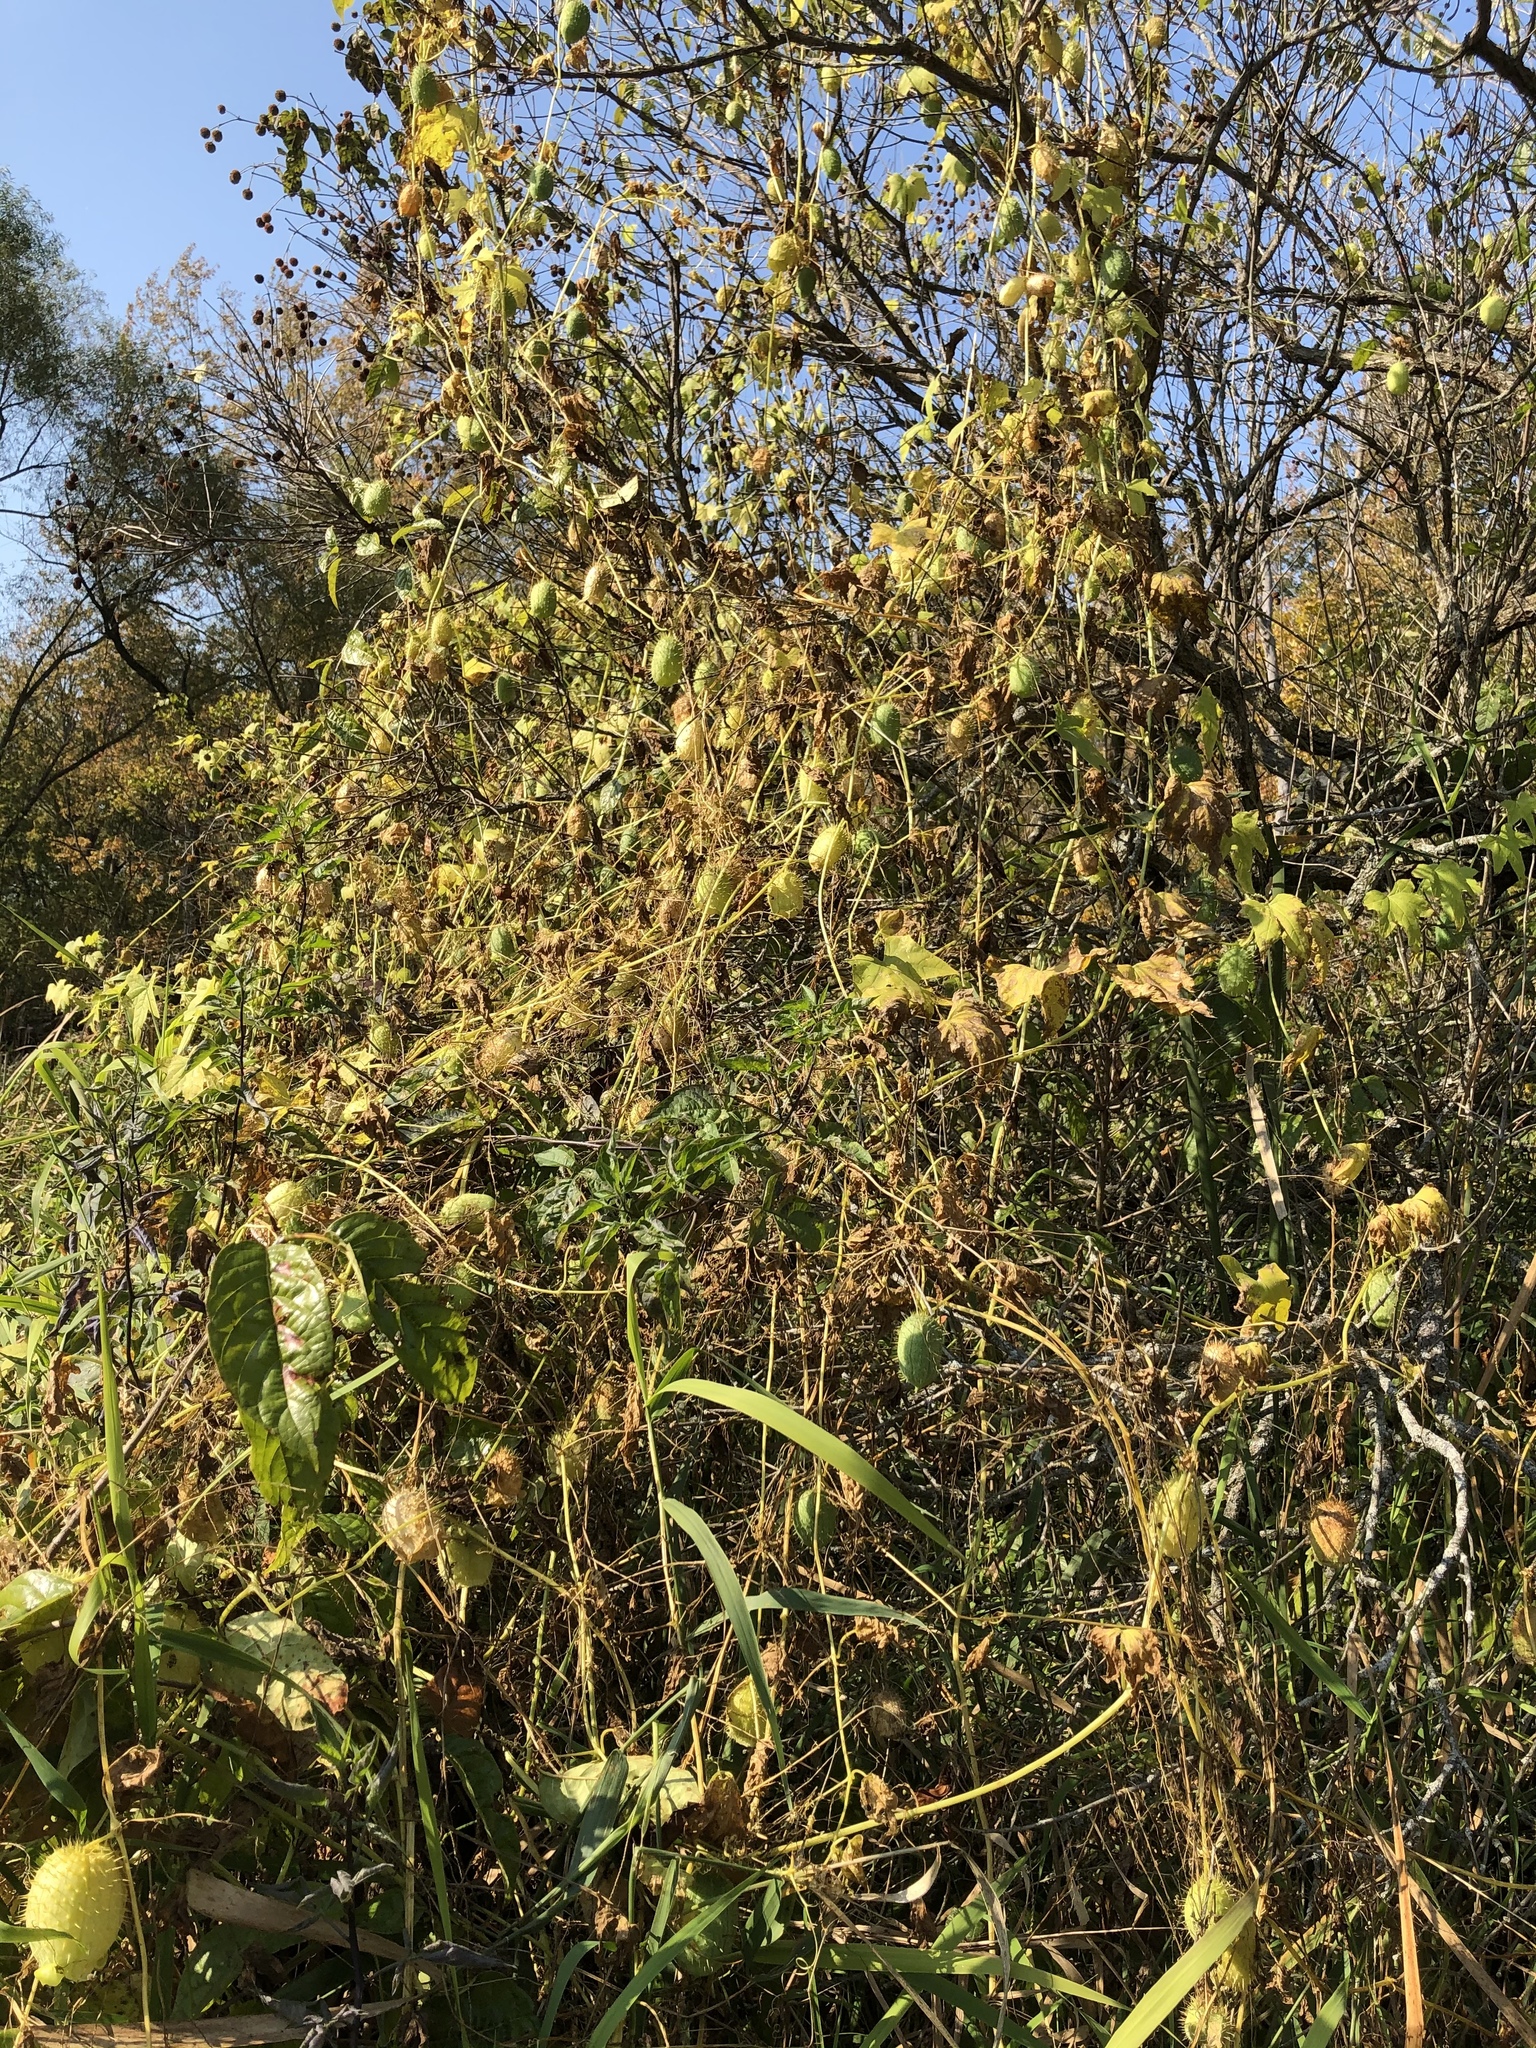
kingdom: Plantae
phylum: Tracheophyta
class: Magnoliopsida
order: Cucurbitales
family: Cucurbitaceae
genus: Echinocystis
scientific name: Echinocystis lobata
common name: Wild cucumber
